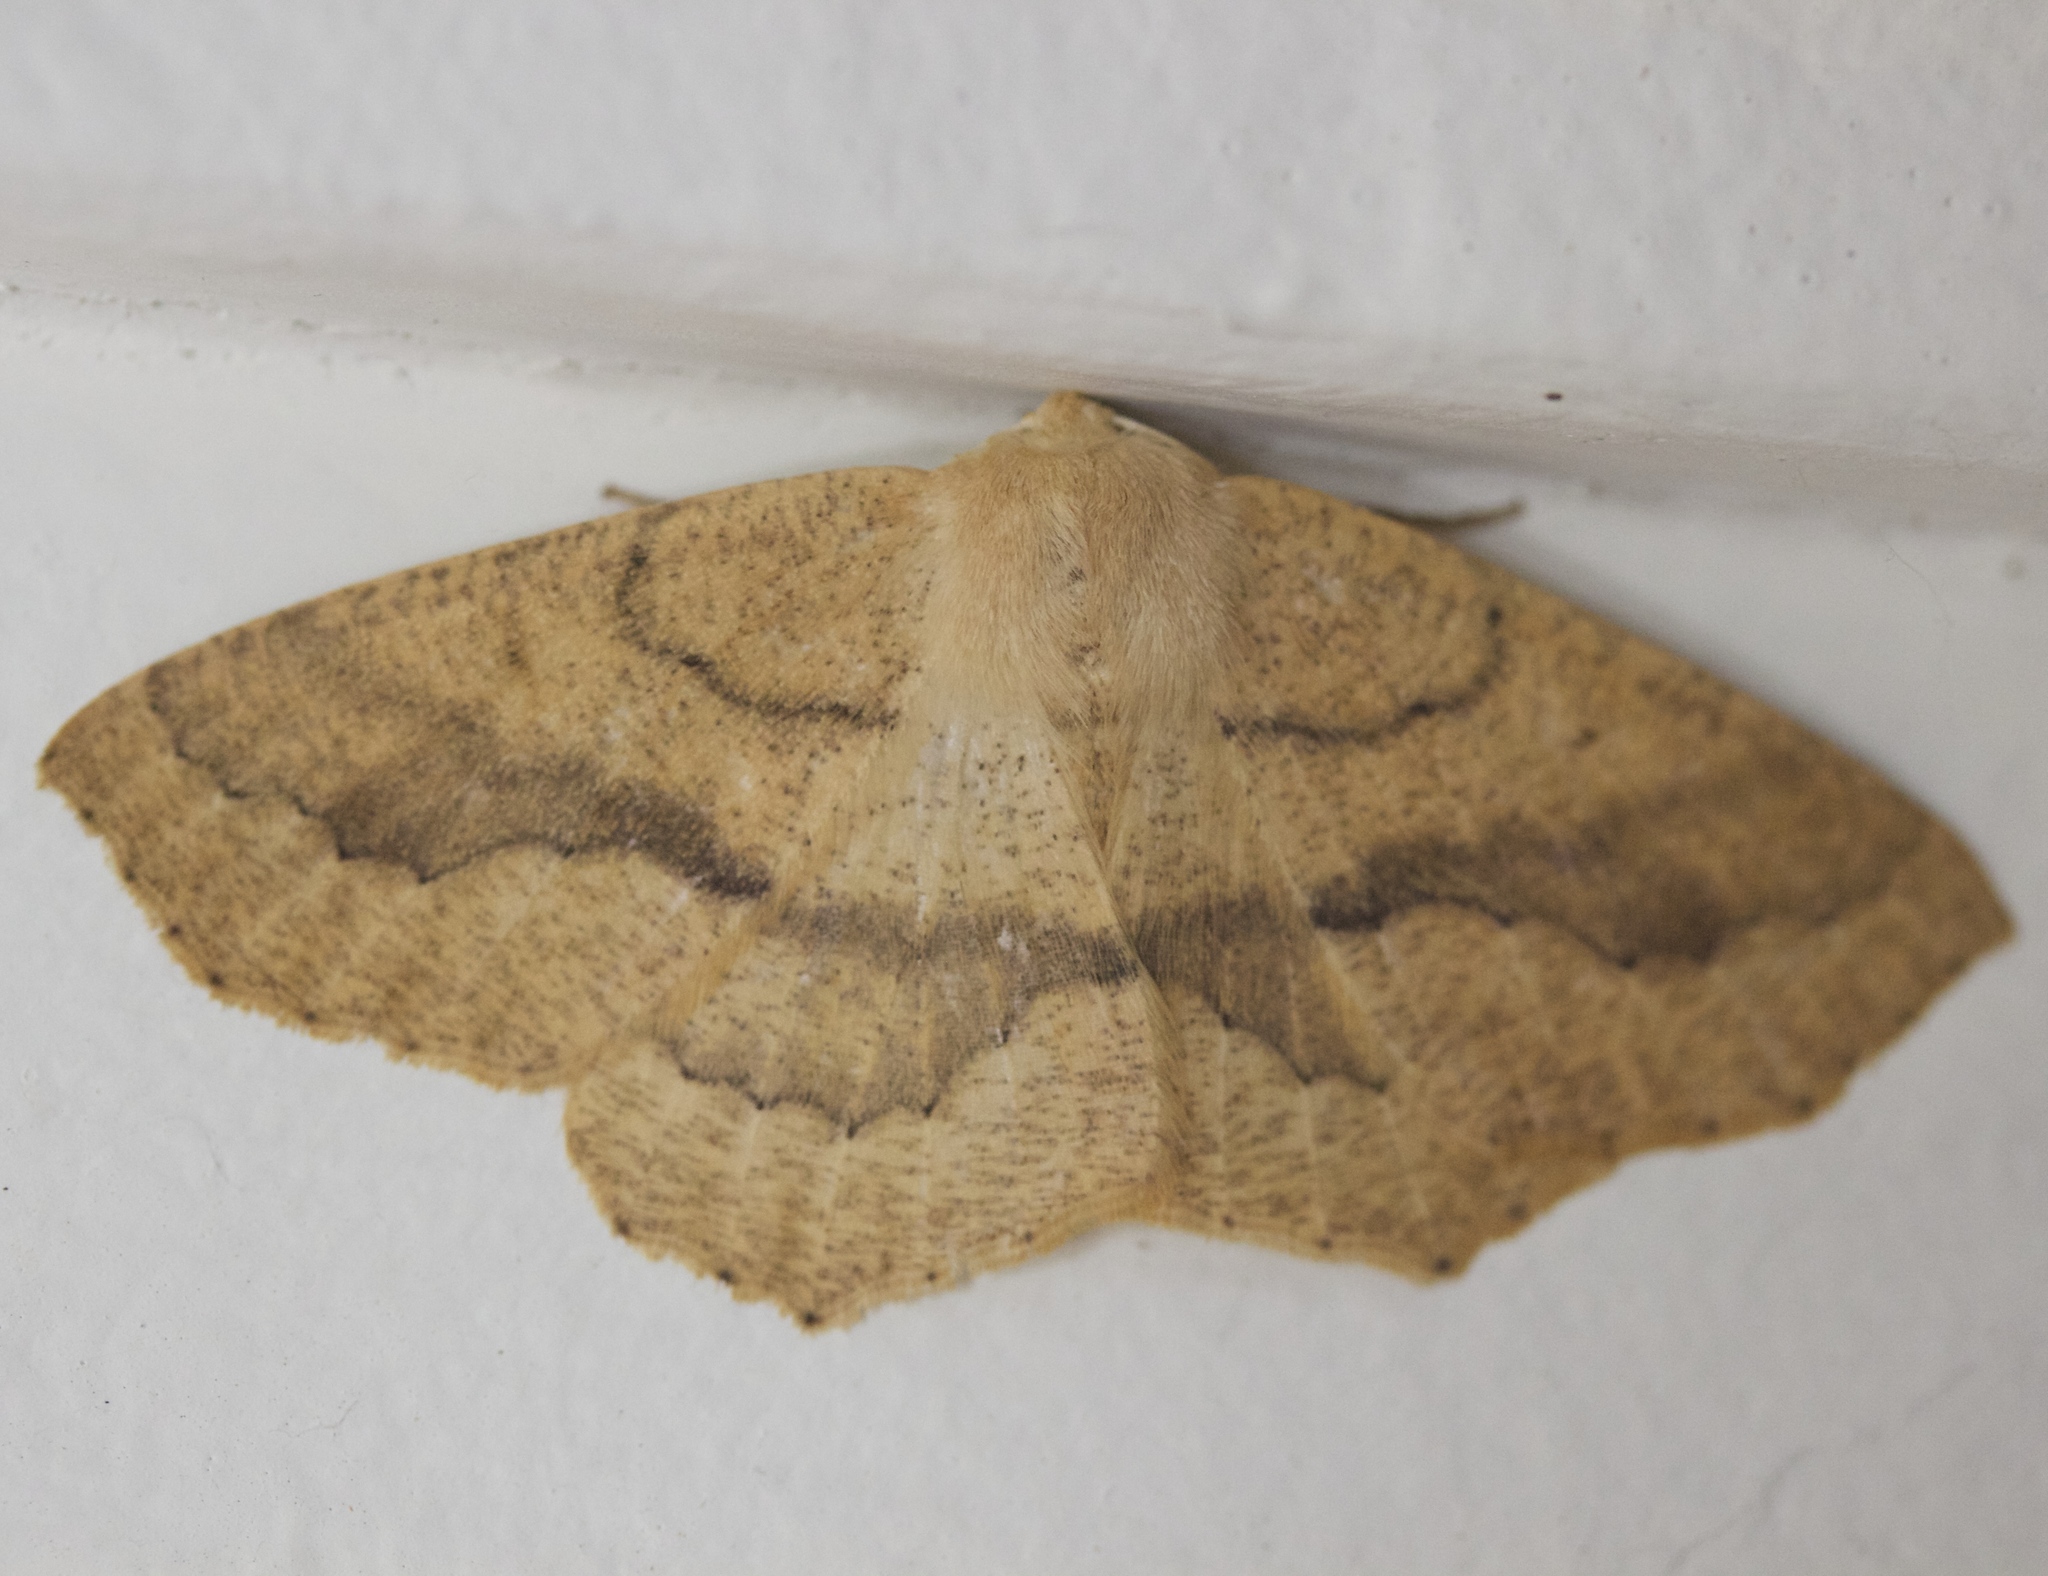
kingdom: Animalia
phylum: Arthropoda
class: Insecta
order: Lepidoptera
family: Geometridae
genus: Sabulodes
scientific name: Sabulodes aegrotata
